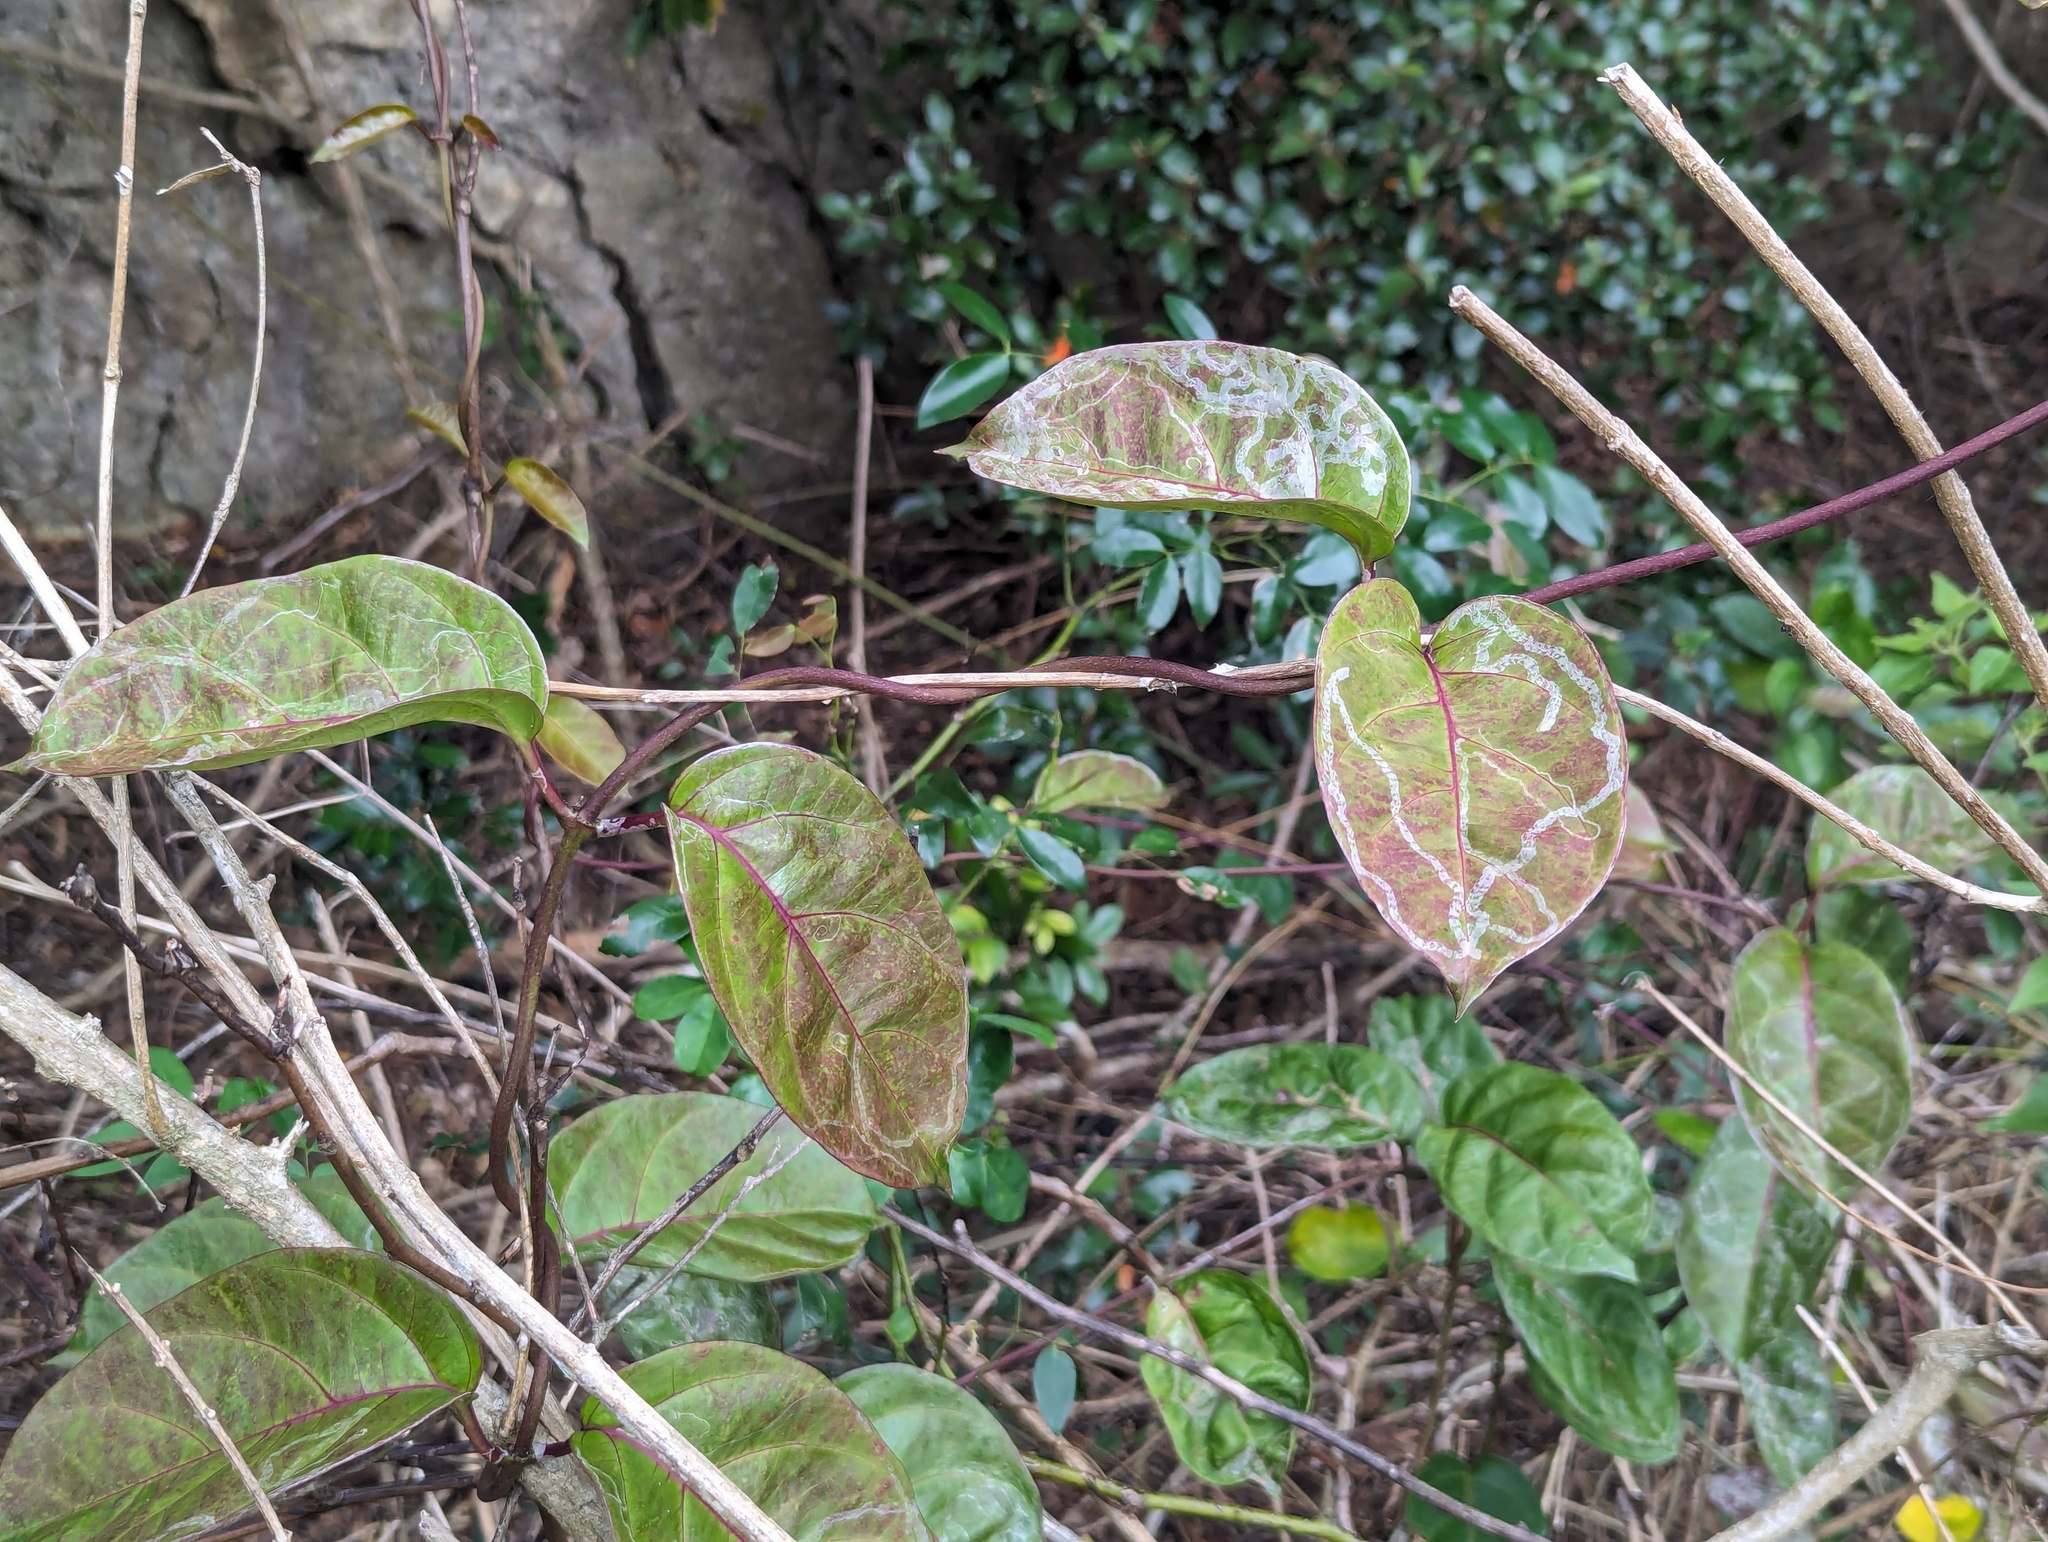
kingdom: Plantae
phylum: Tracheophyta
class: Magnoliopsida
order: Gentianales
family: Apocynaceae
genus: Parsonsia
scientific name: Parsonsia alboflavescens
